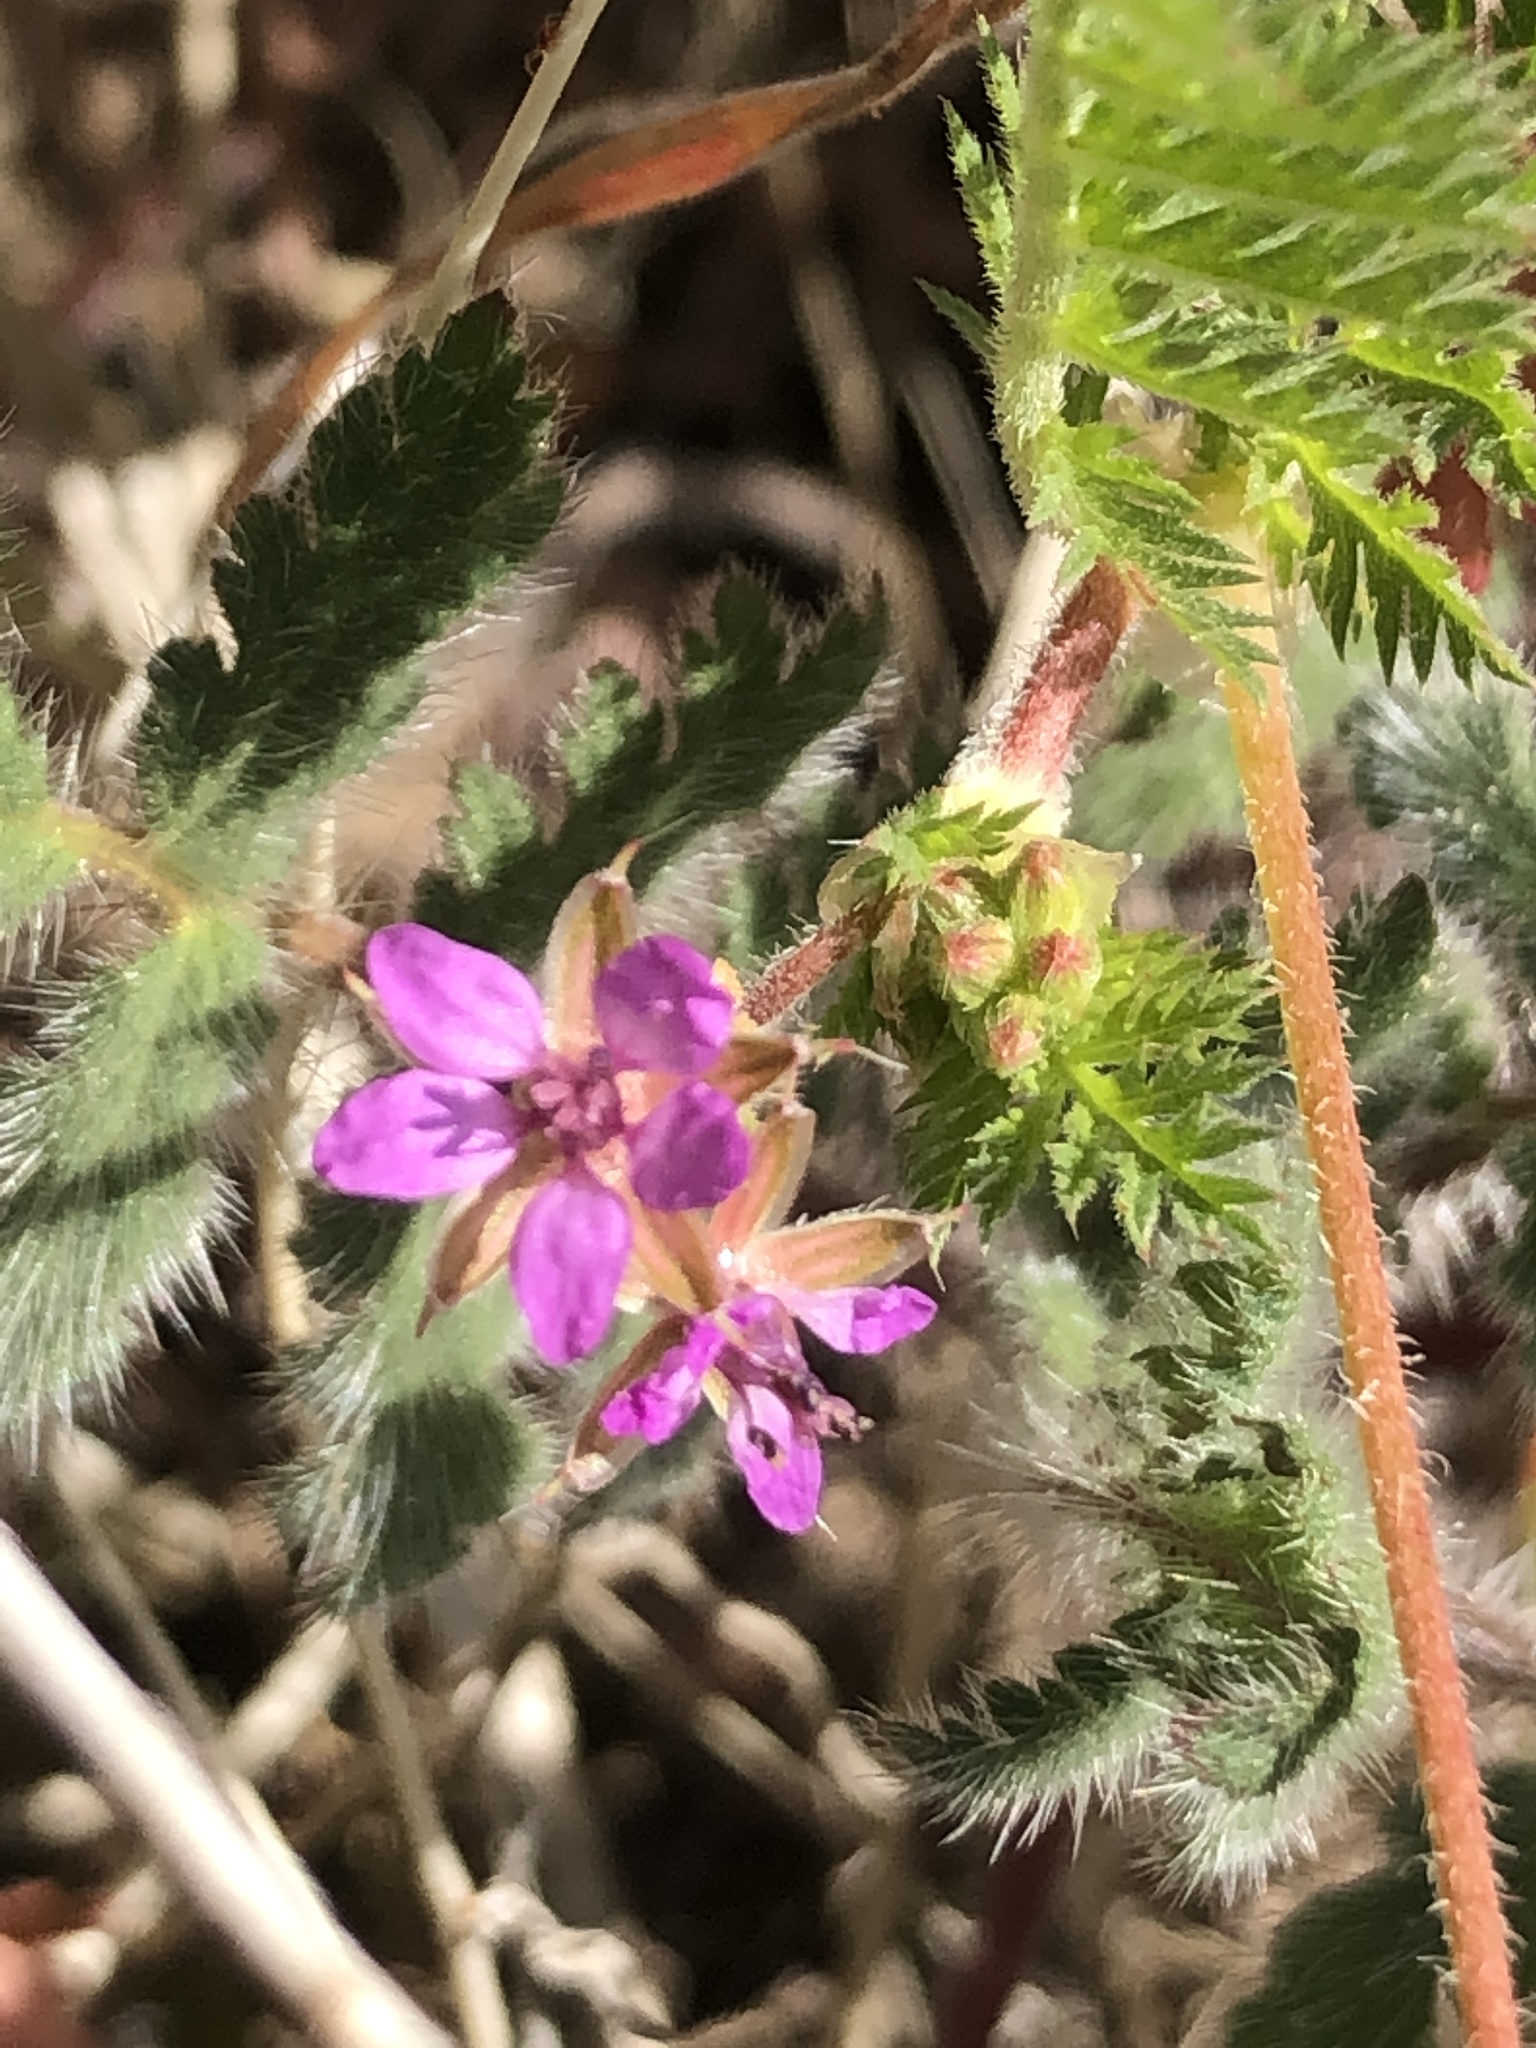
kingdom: Plantae
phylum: Tracheophyta
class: Magnoliopsida
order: Geraniales
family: Geraniaceae
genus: Erodium
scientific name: Erodium cicutarium
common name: Common stork's-bill
